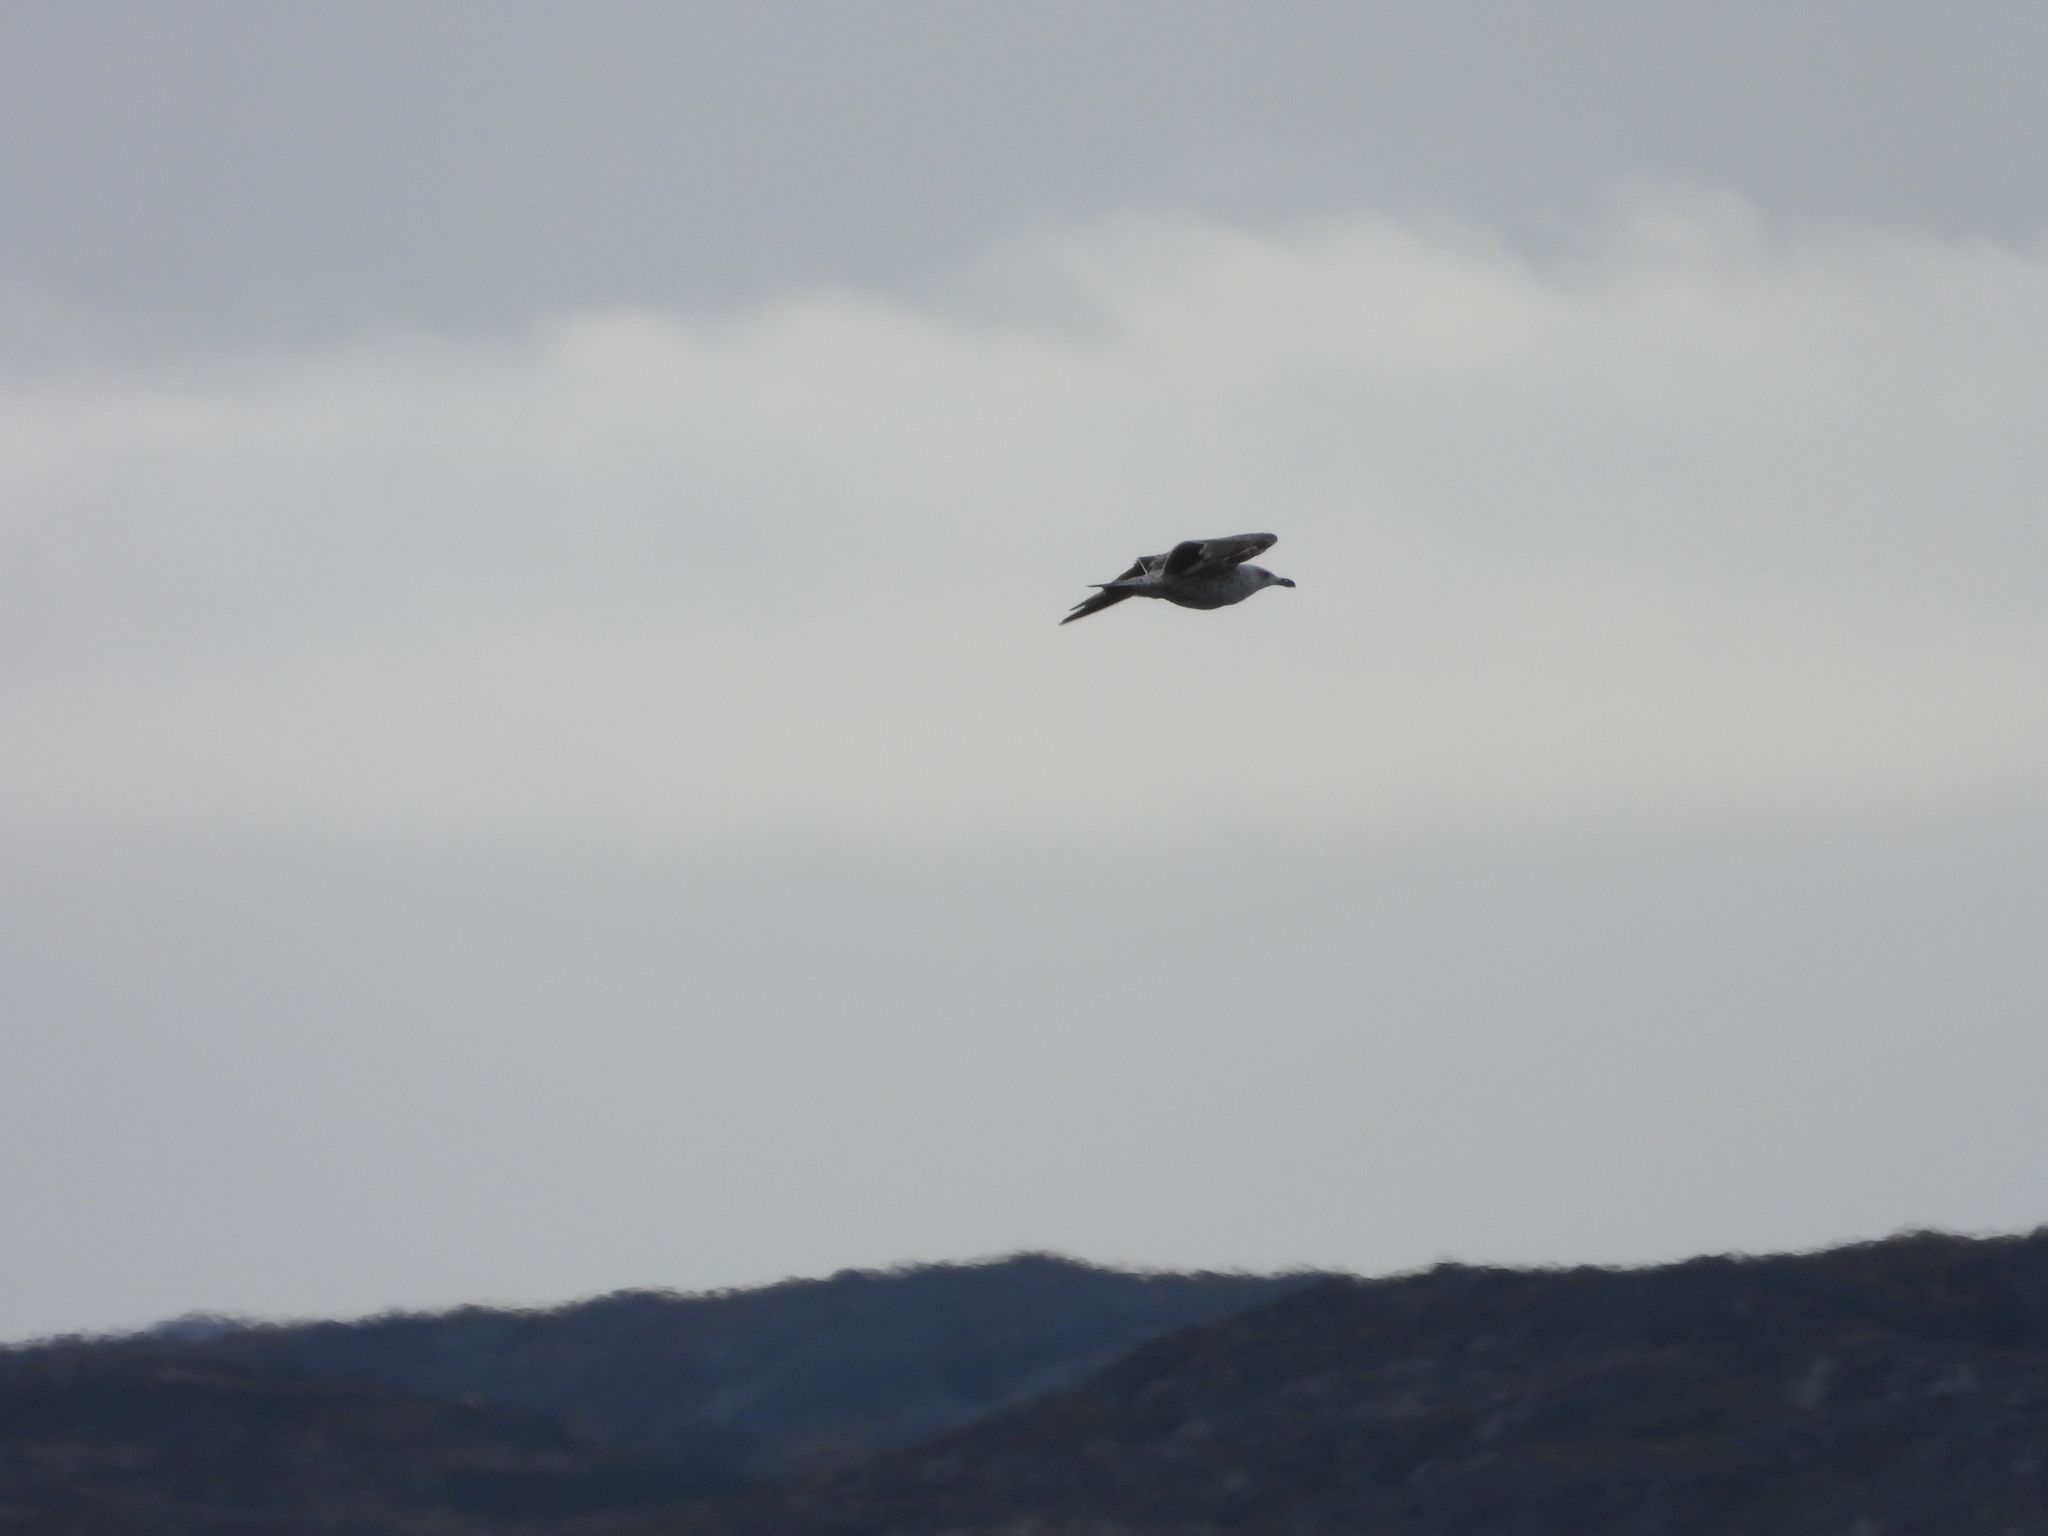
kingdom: Animalia
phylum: Chordata
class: Aves
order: Charadriiformes
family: Laridae
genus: Larus
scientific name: Larus marinus
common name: Great black-backed gull
